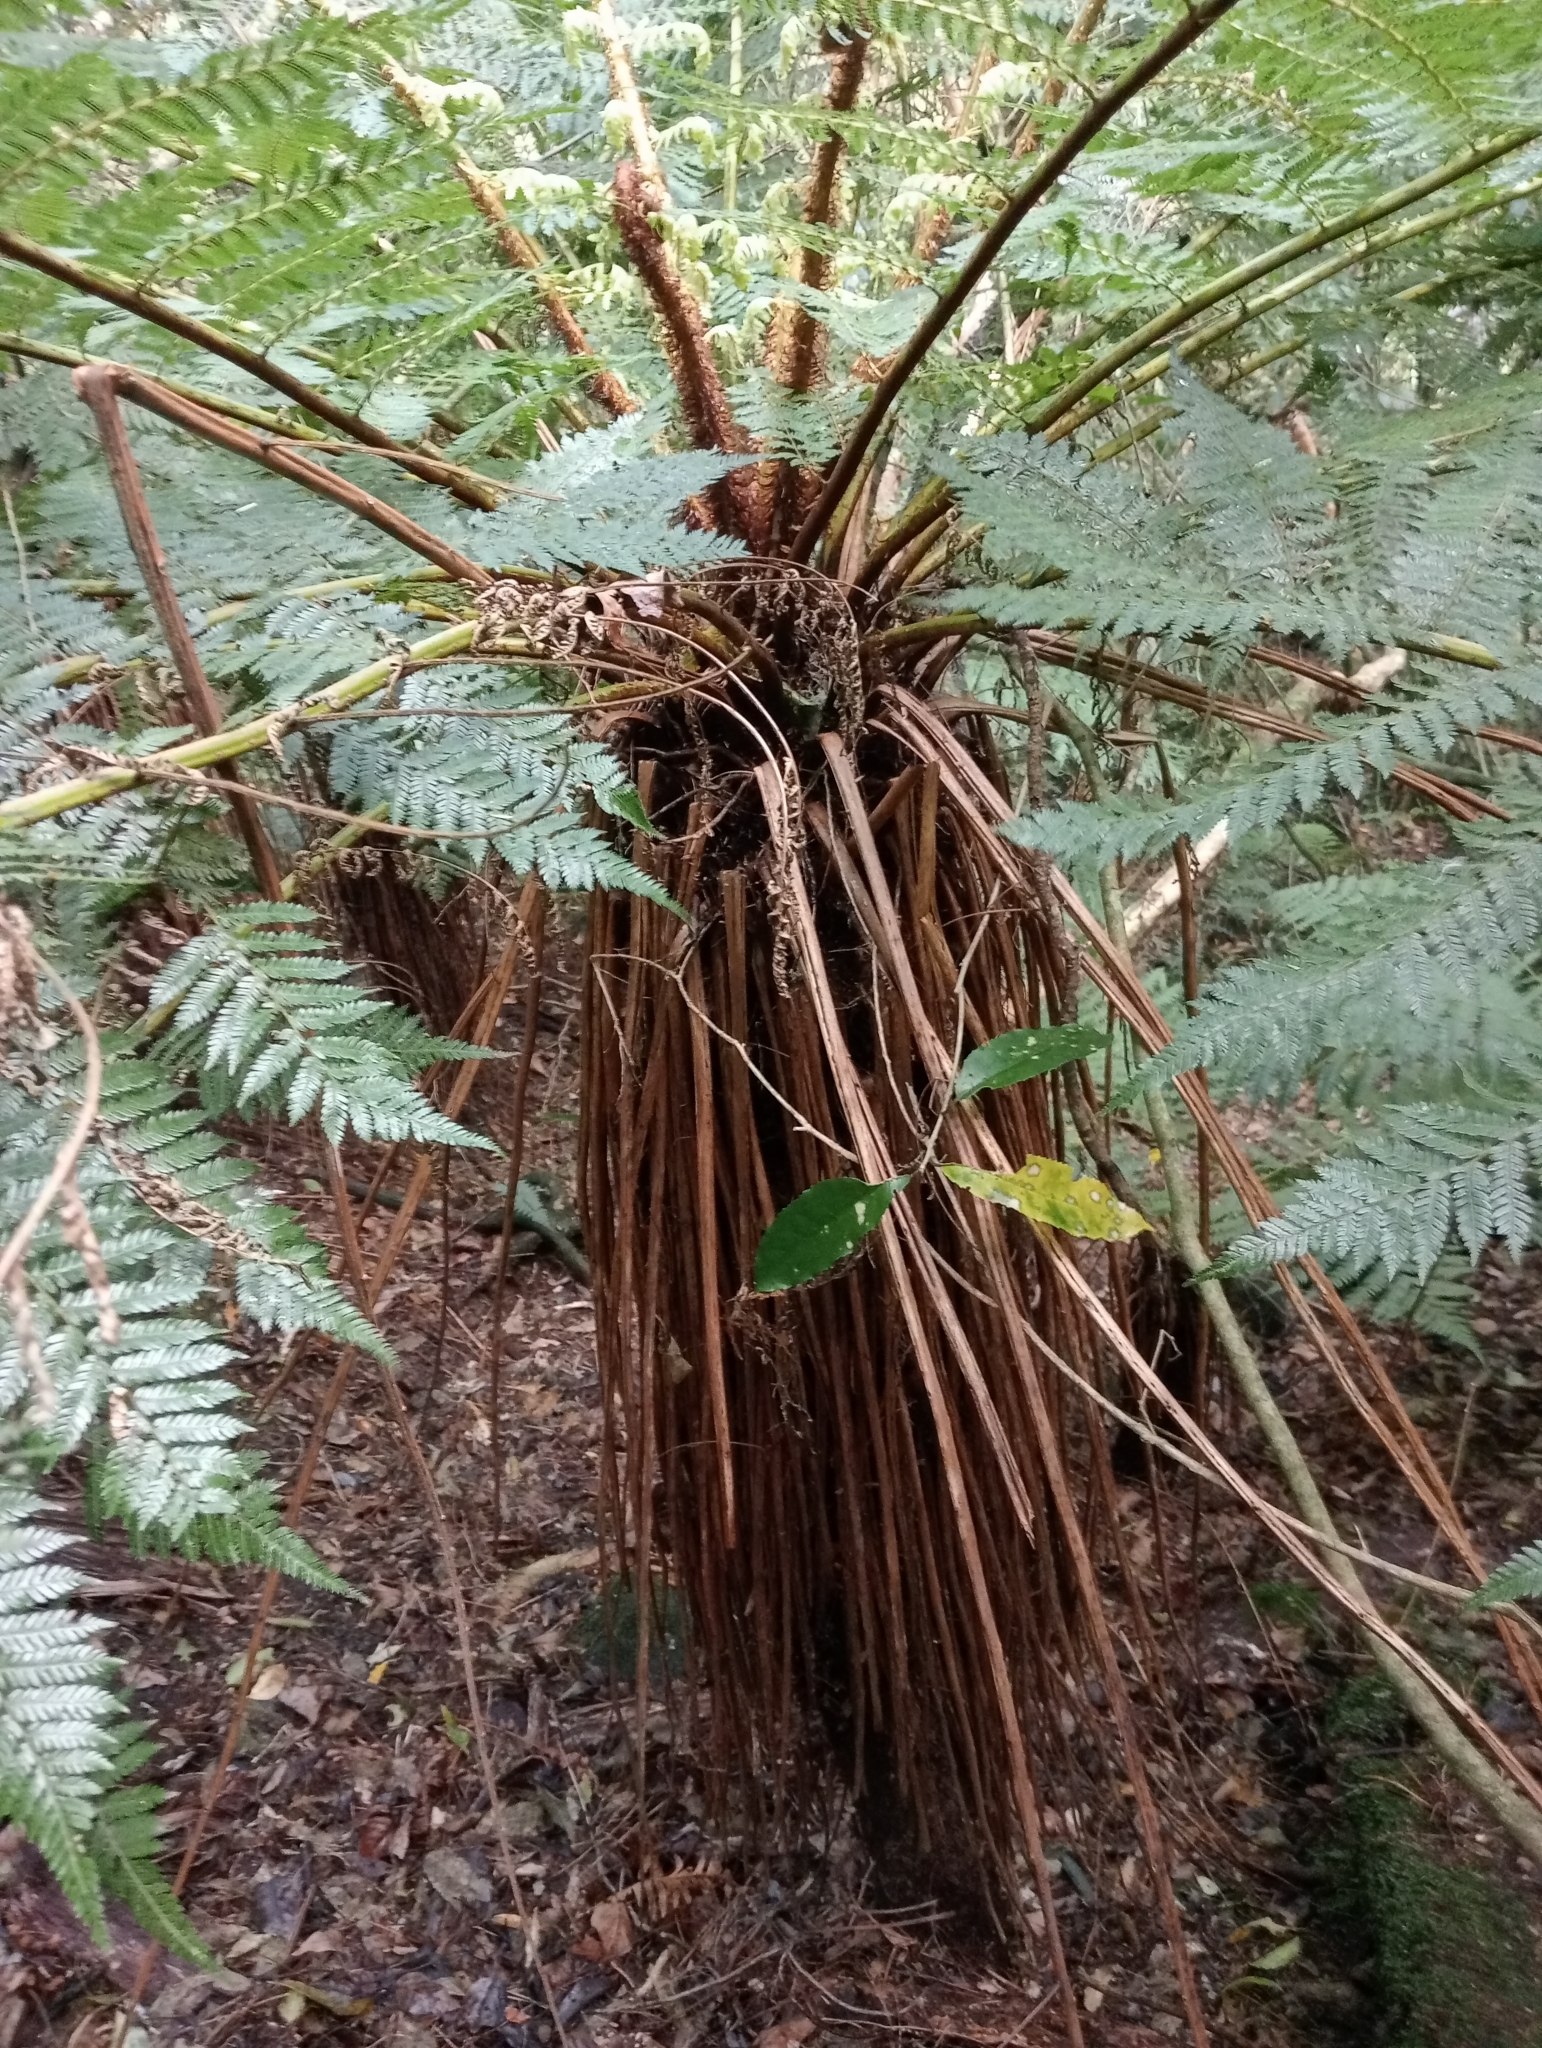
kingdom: Plantae
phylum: Tracheophyta
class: Polypodiopsida
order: Cyatheales
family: Cyatheaceae
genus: Alsophila
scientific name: Alsophila smithii
